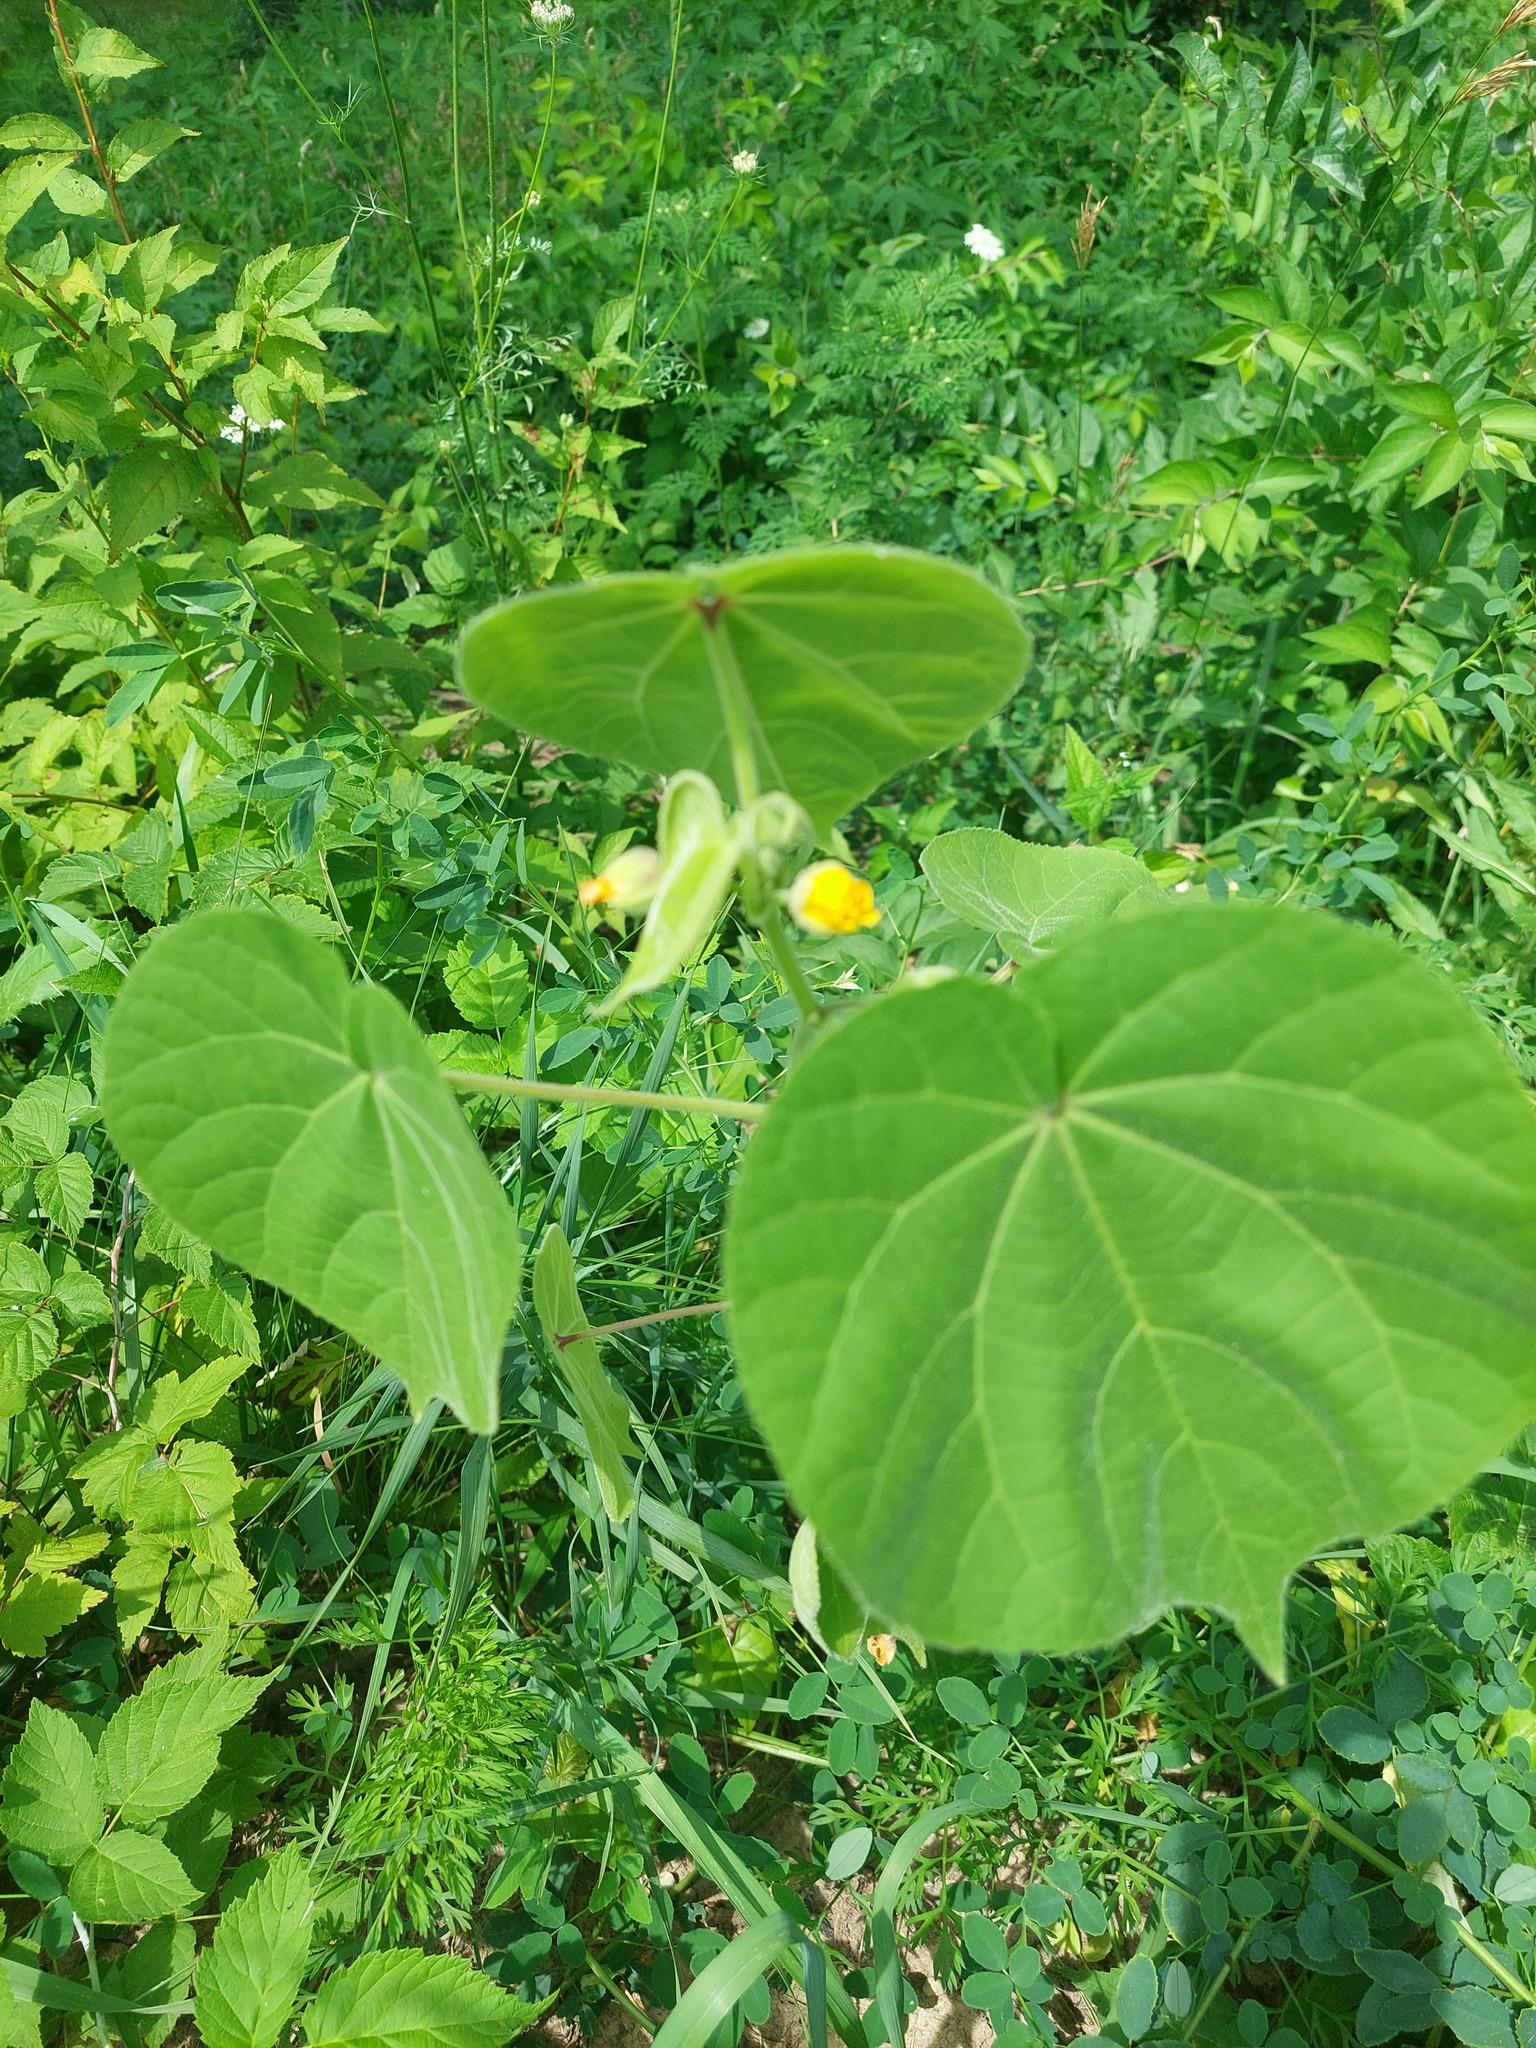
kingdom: Plantae
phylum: Tracheophyta
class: Magnoliopsida
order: Malvales
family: Malvaceae
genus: Abutilon
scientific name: Abutilon theophrasti
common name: Velvetleaf
